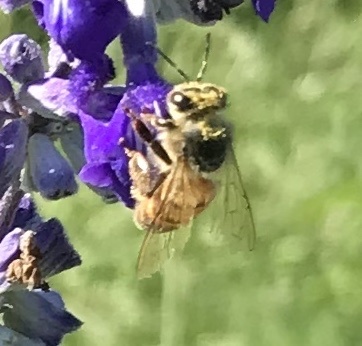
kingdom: Animalia
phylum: Arthropoda
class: Insecta
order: Hymenoptera
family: Apidae
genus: Apis
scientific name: Apis mellifera
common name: Honey bee
